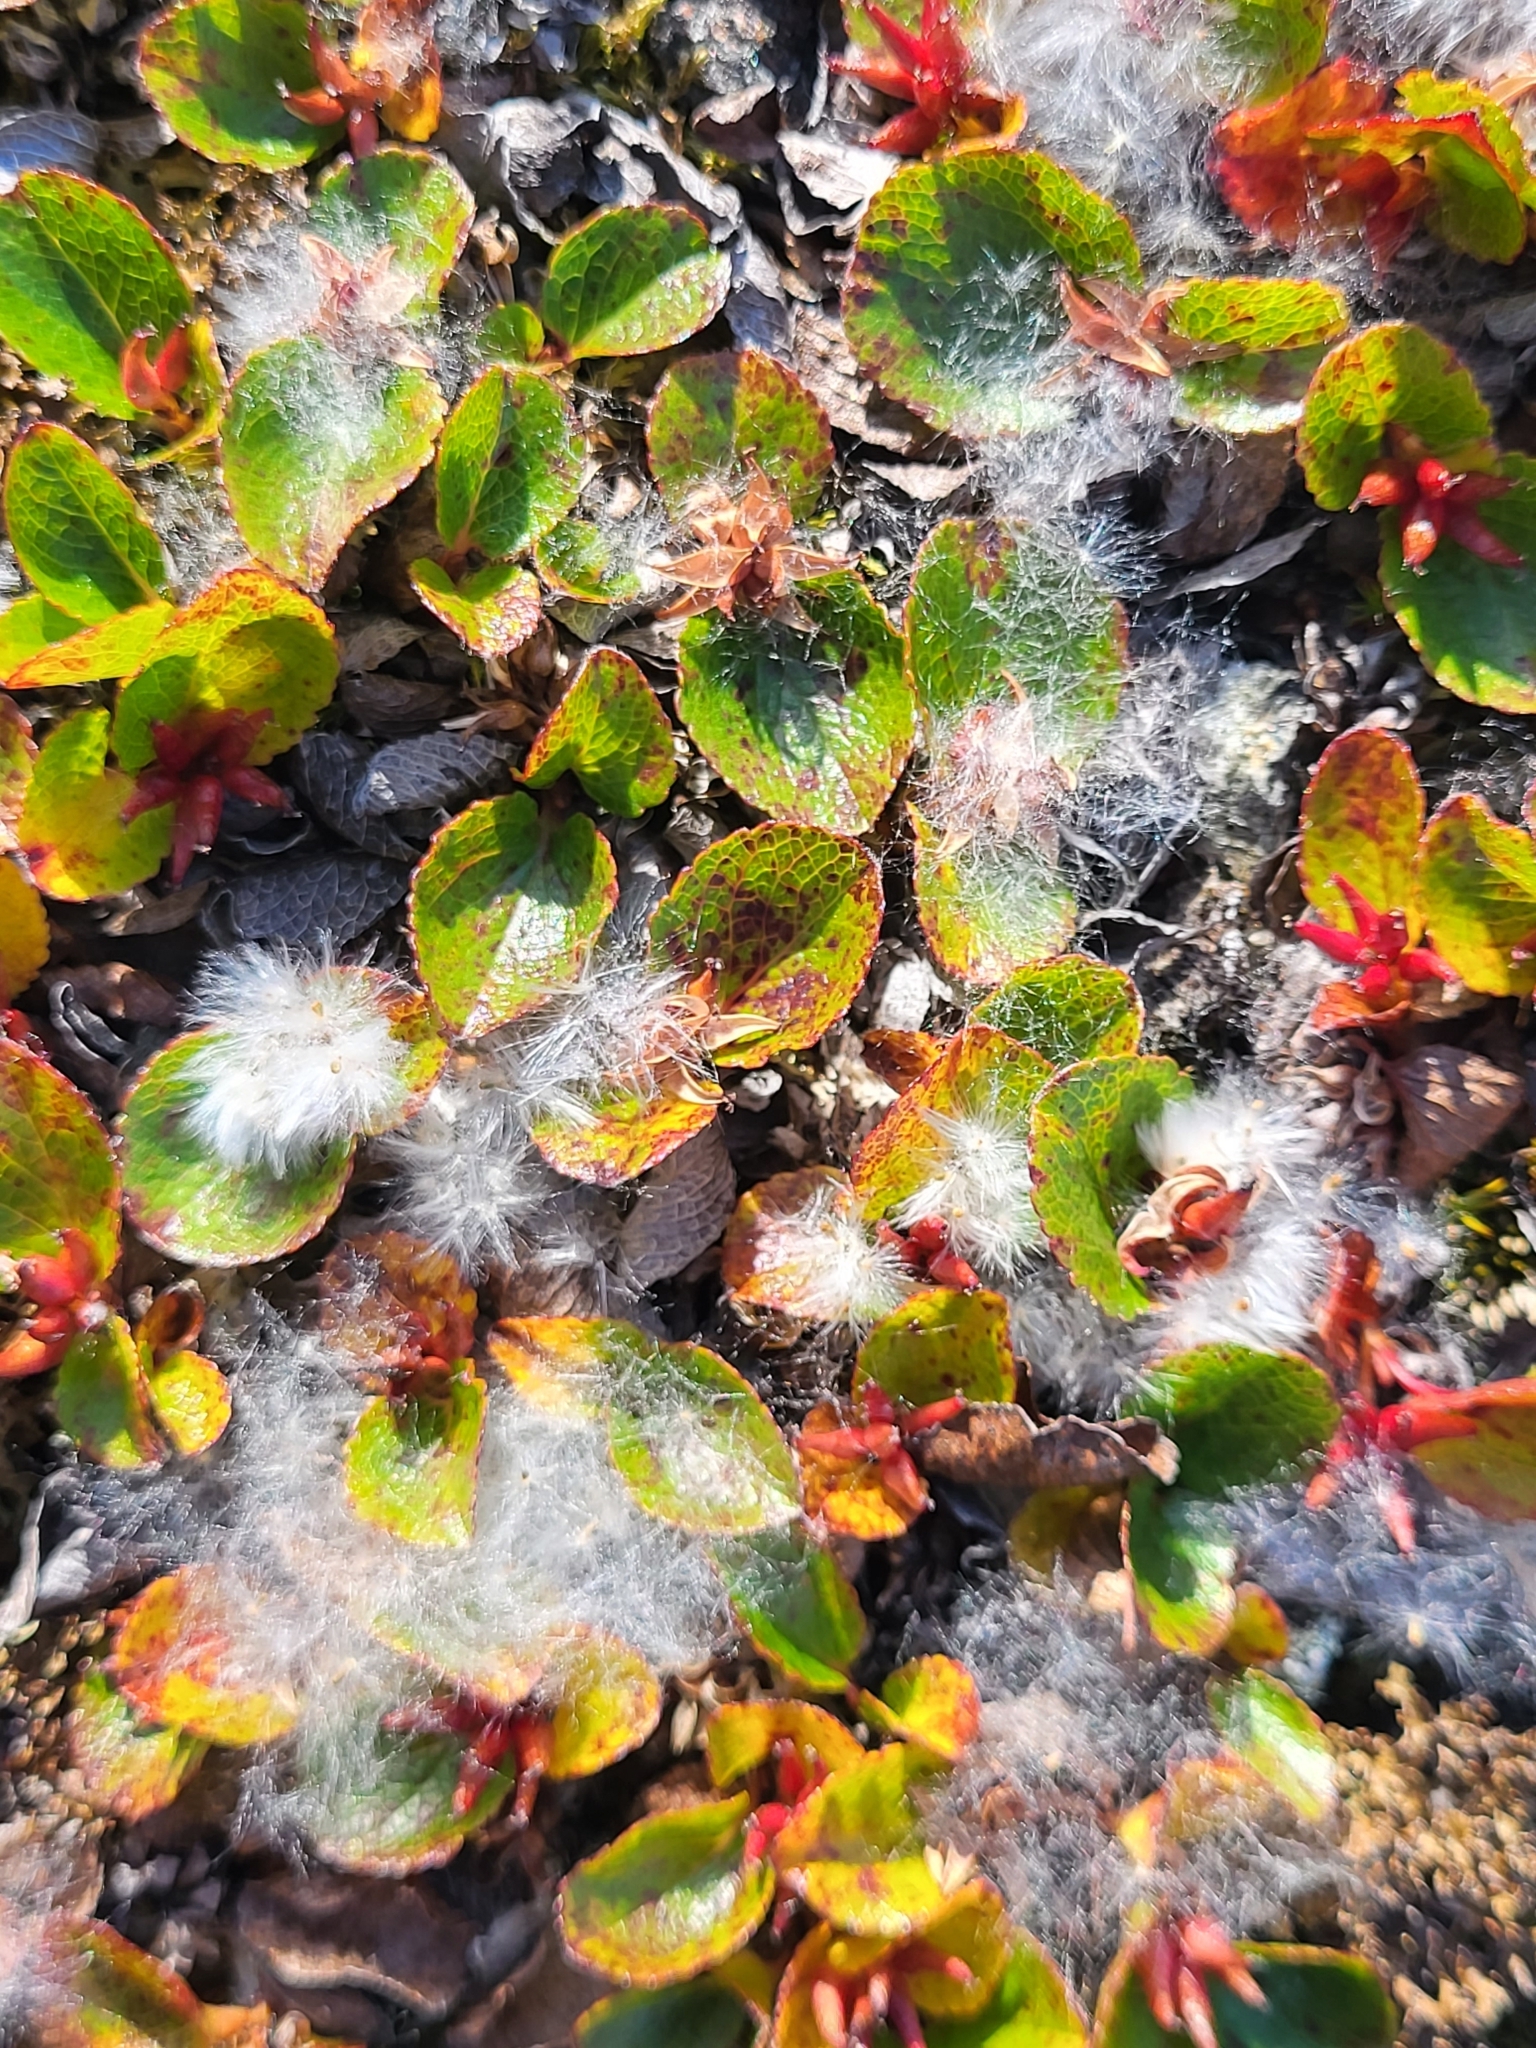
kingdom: Plantae
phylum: Tracheophyta
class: Magnoliopsida
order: Malpighiales
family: Salicaceae
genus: Salix
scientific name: Salix herbacea
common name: Dwarf willow
